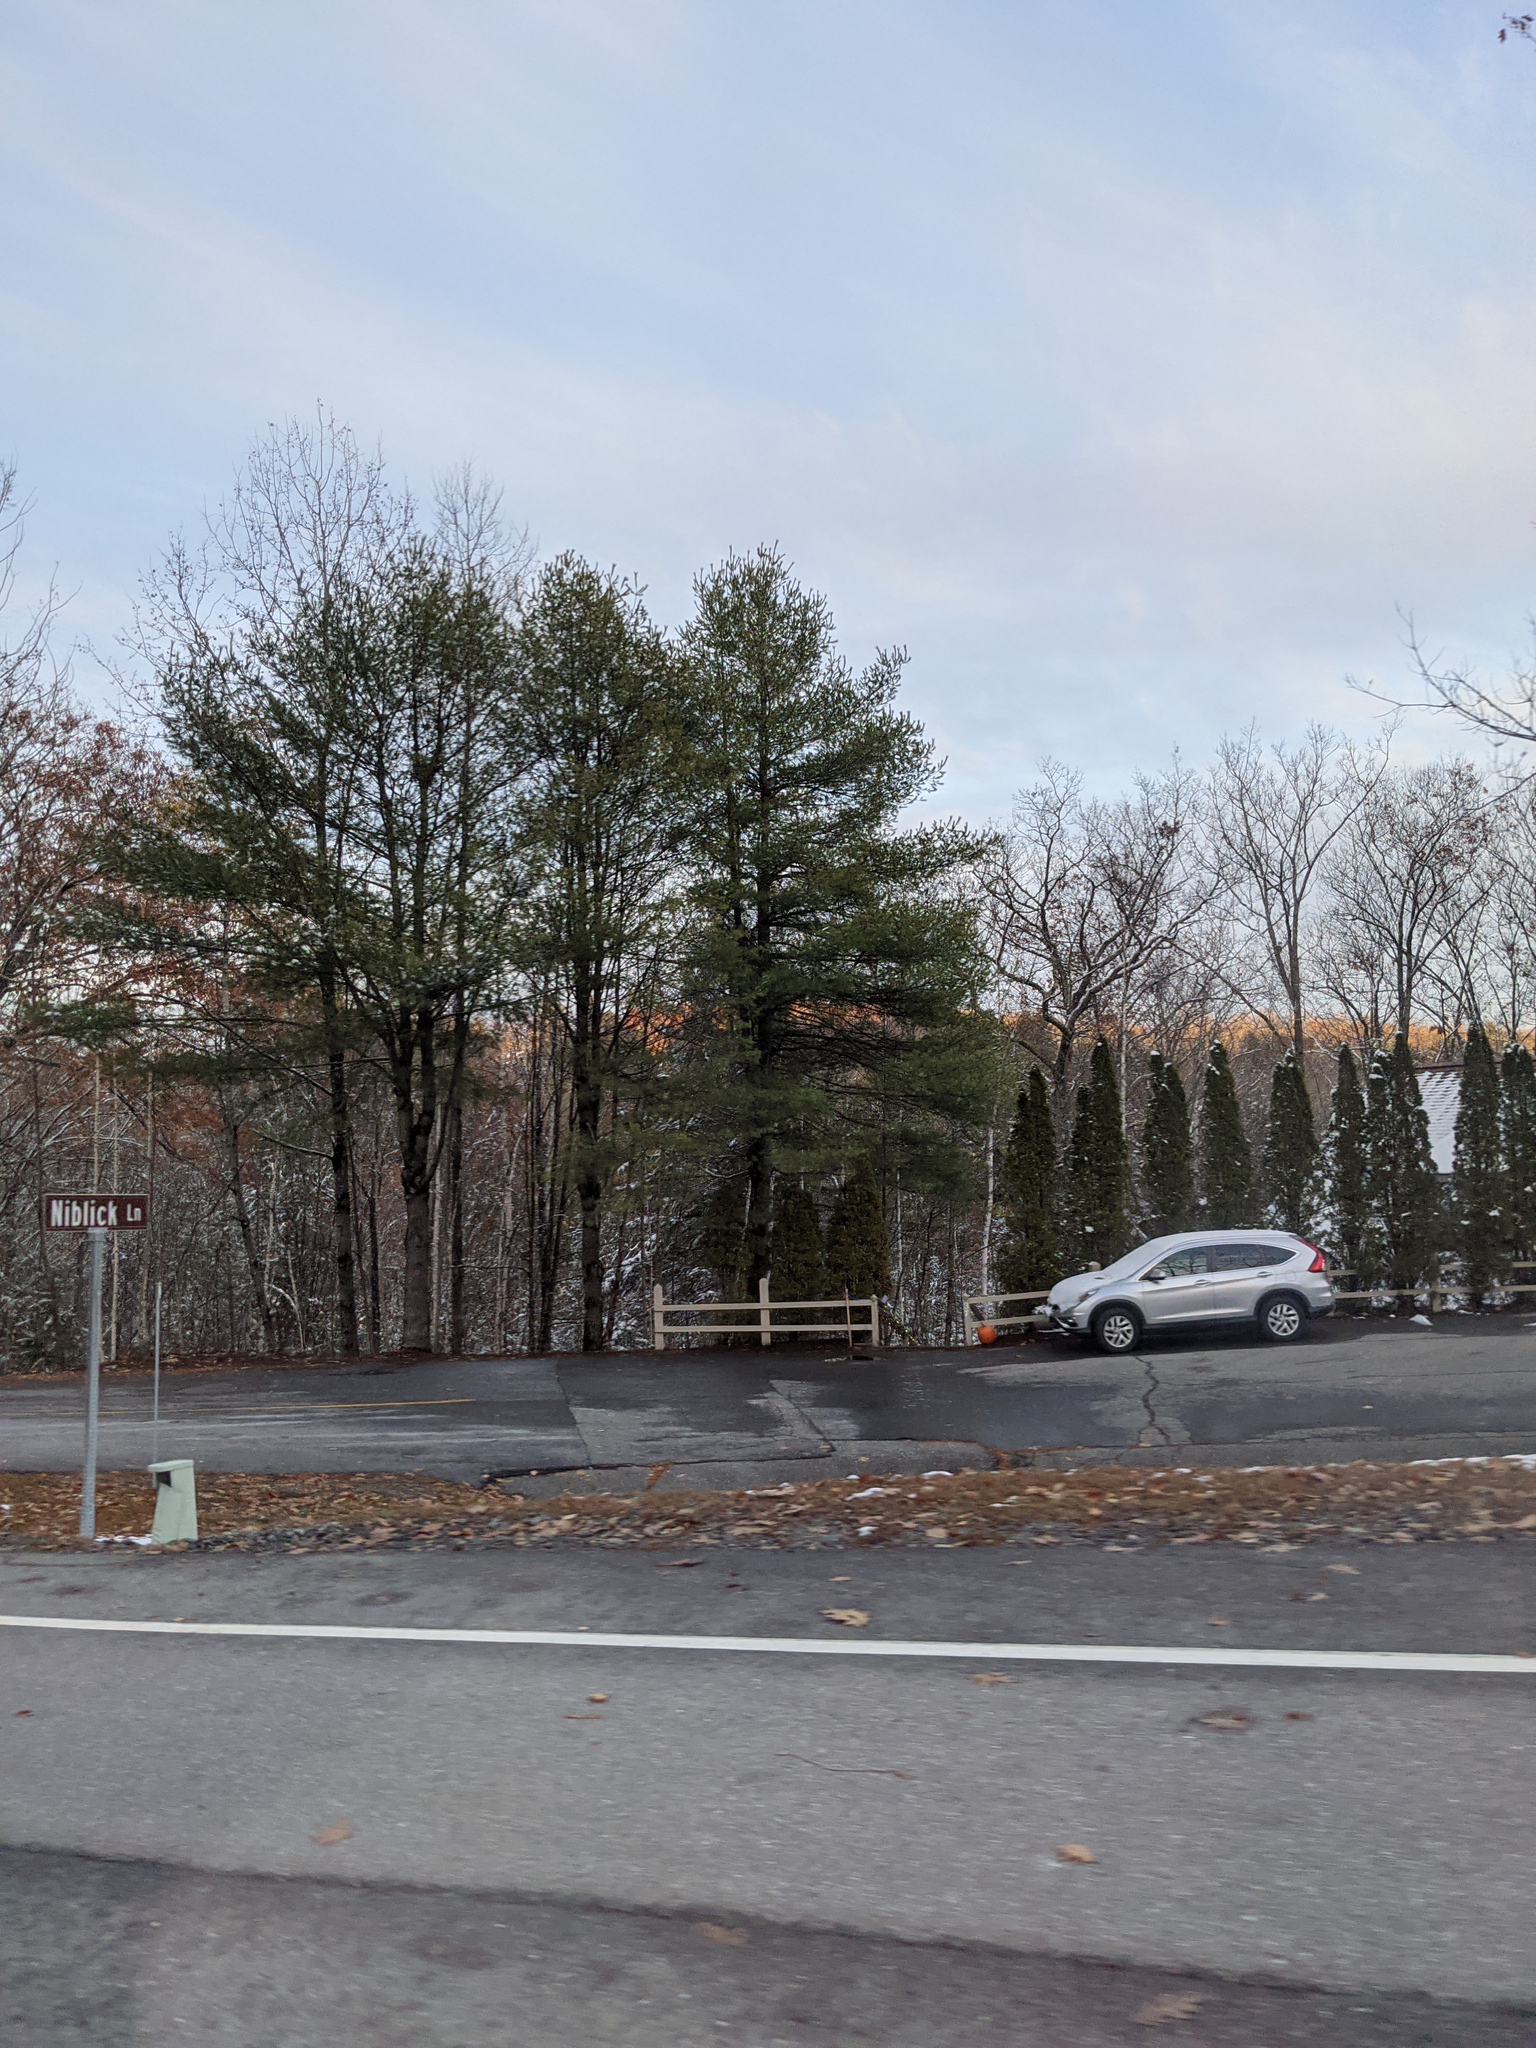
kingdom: Plantae
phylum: Tracheophyta
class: Pinopsida
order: Pinales
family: Pinaceae
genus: Pinus
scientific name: Pinus strobus
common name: Weymouth pine
